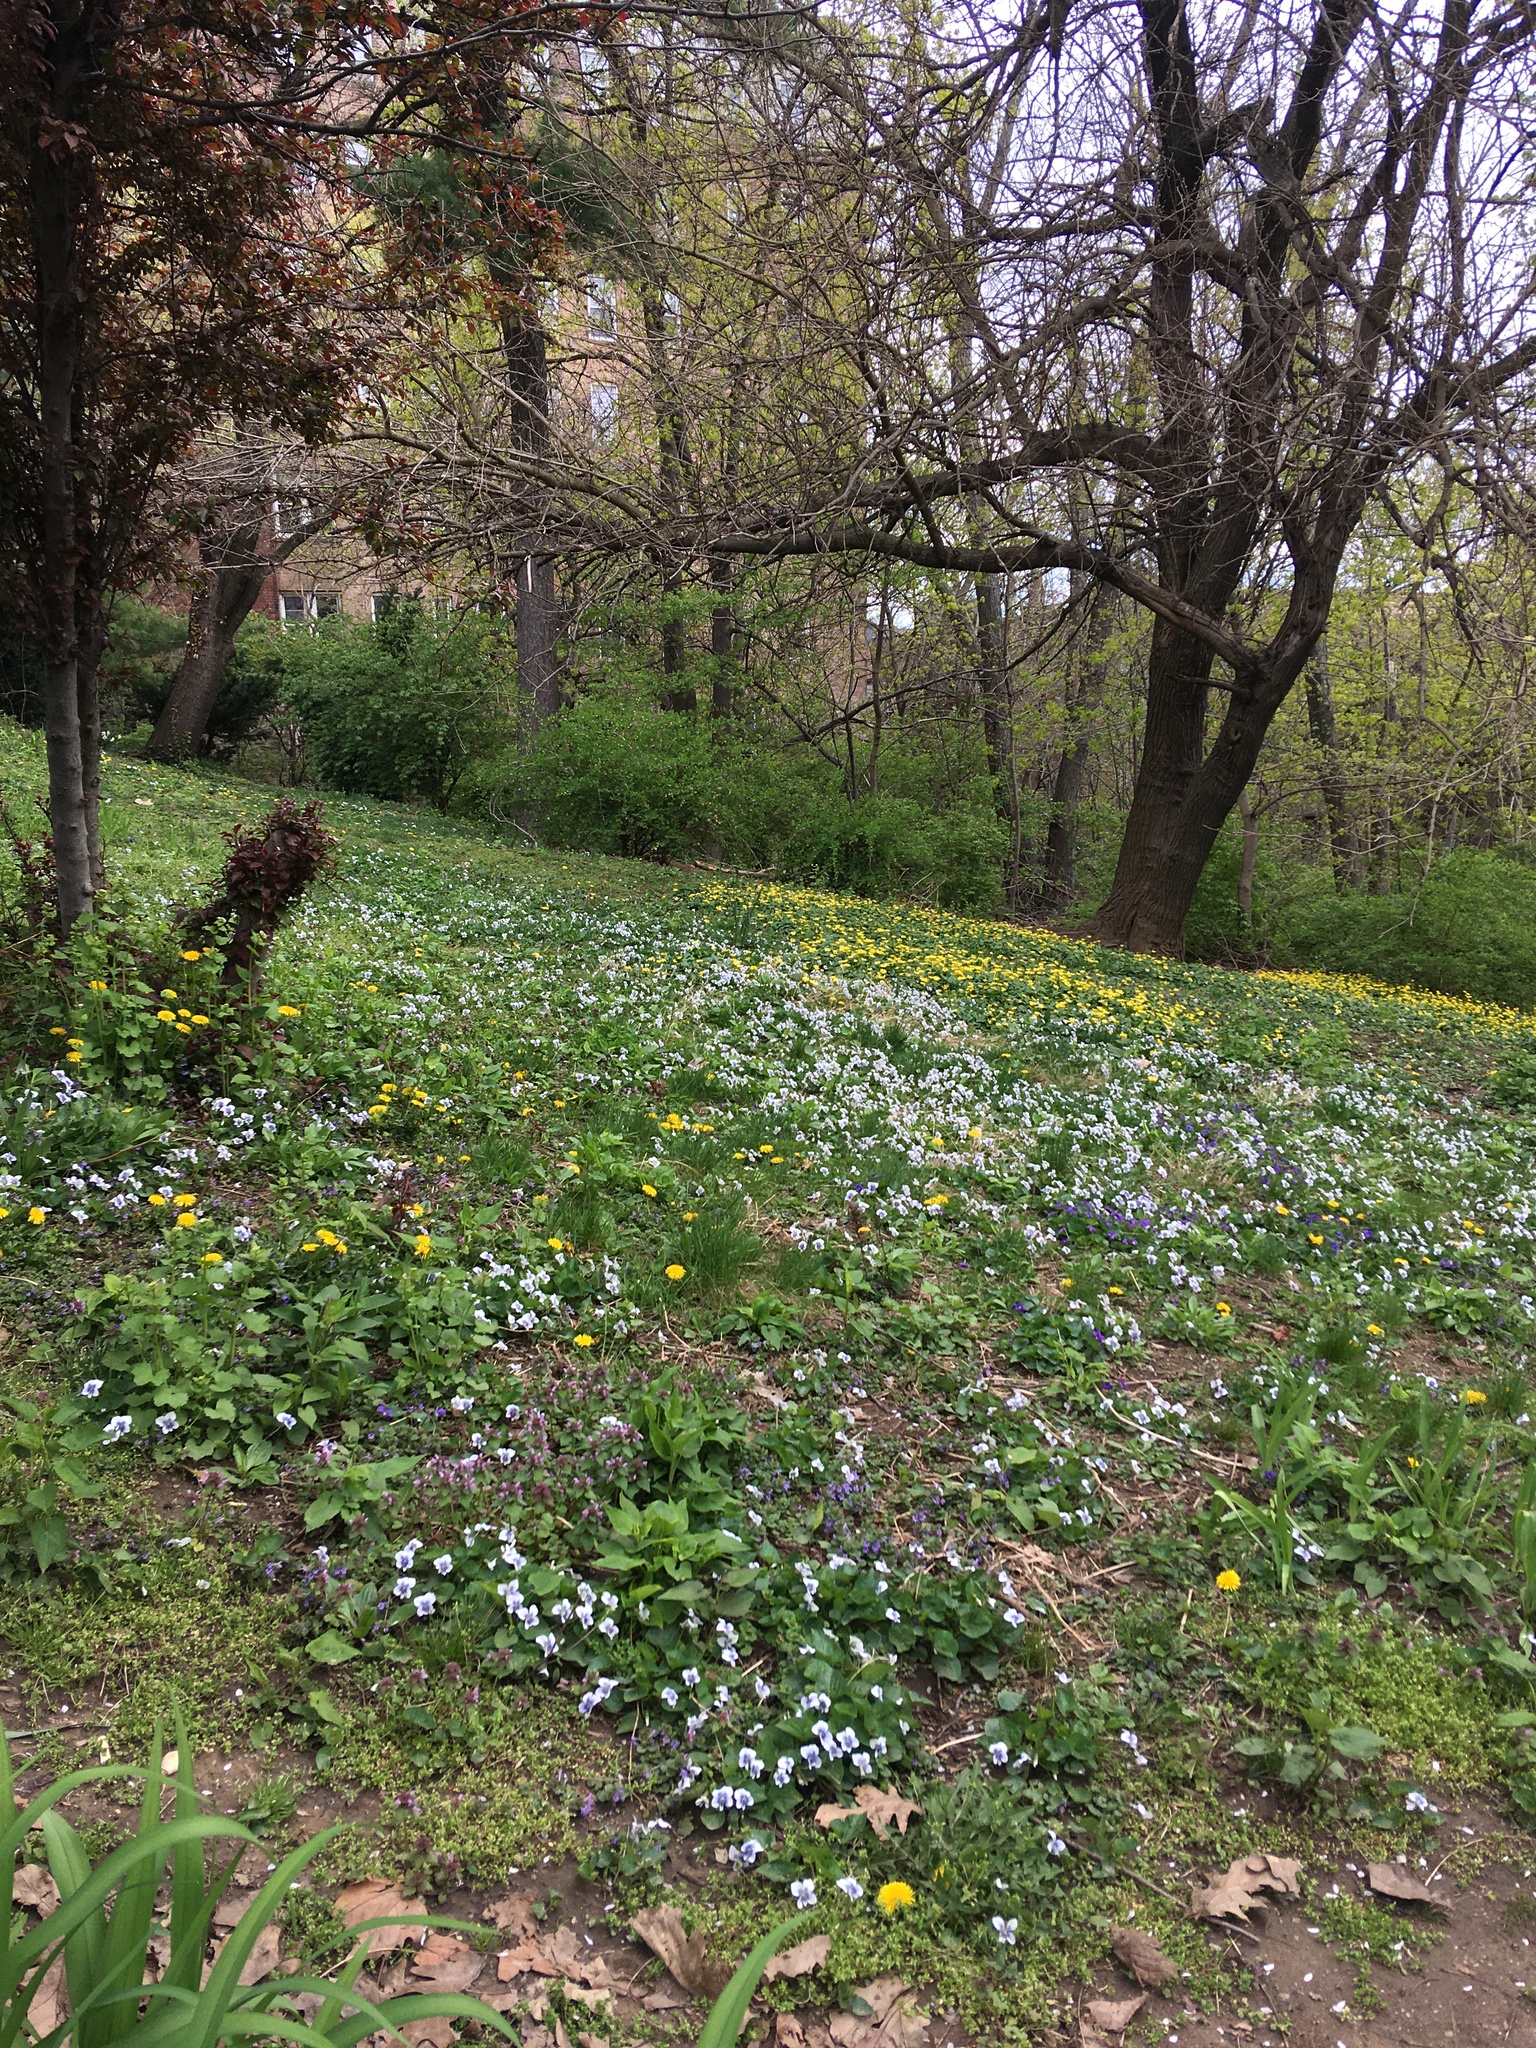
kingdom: Plantae
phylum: Tracheophyta
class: Magnoliopsida
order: Malpighiales
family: Violaceae
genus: Viola
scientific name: Viola sororia
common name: Dooryard violet
